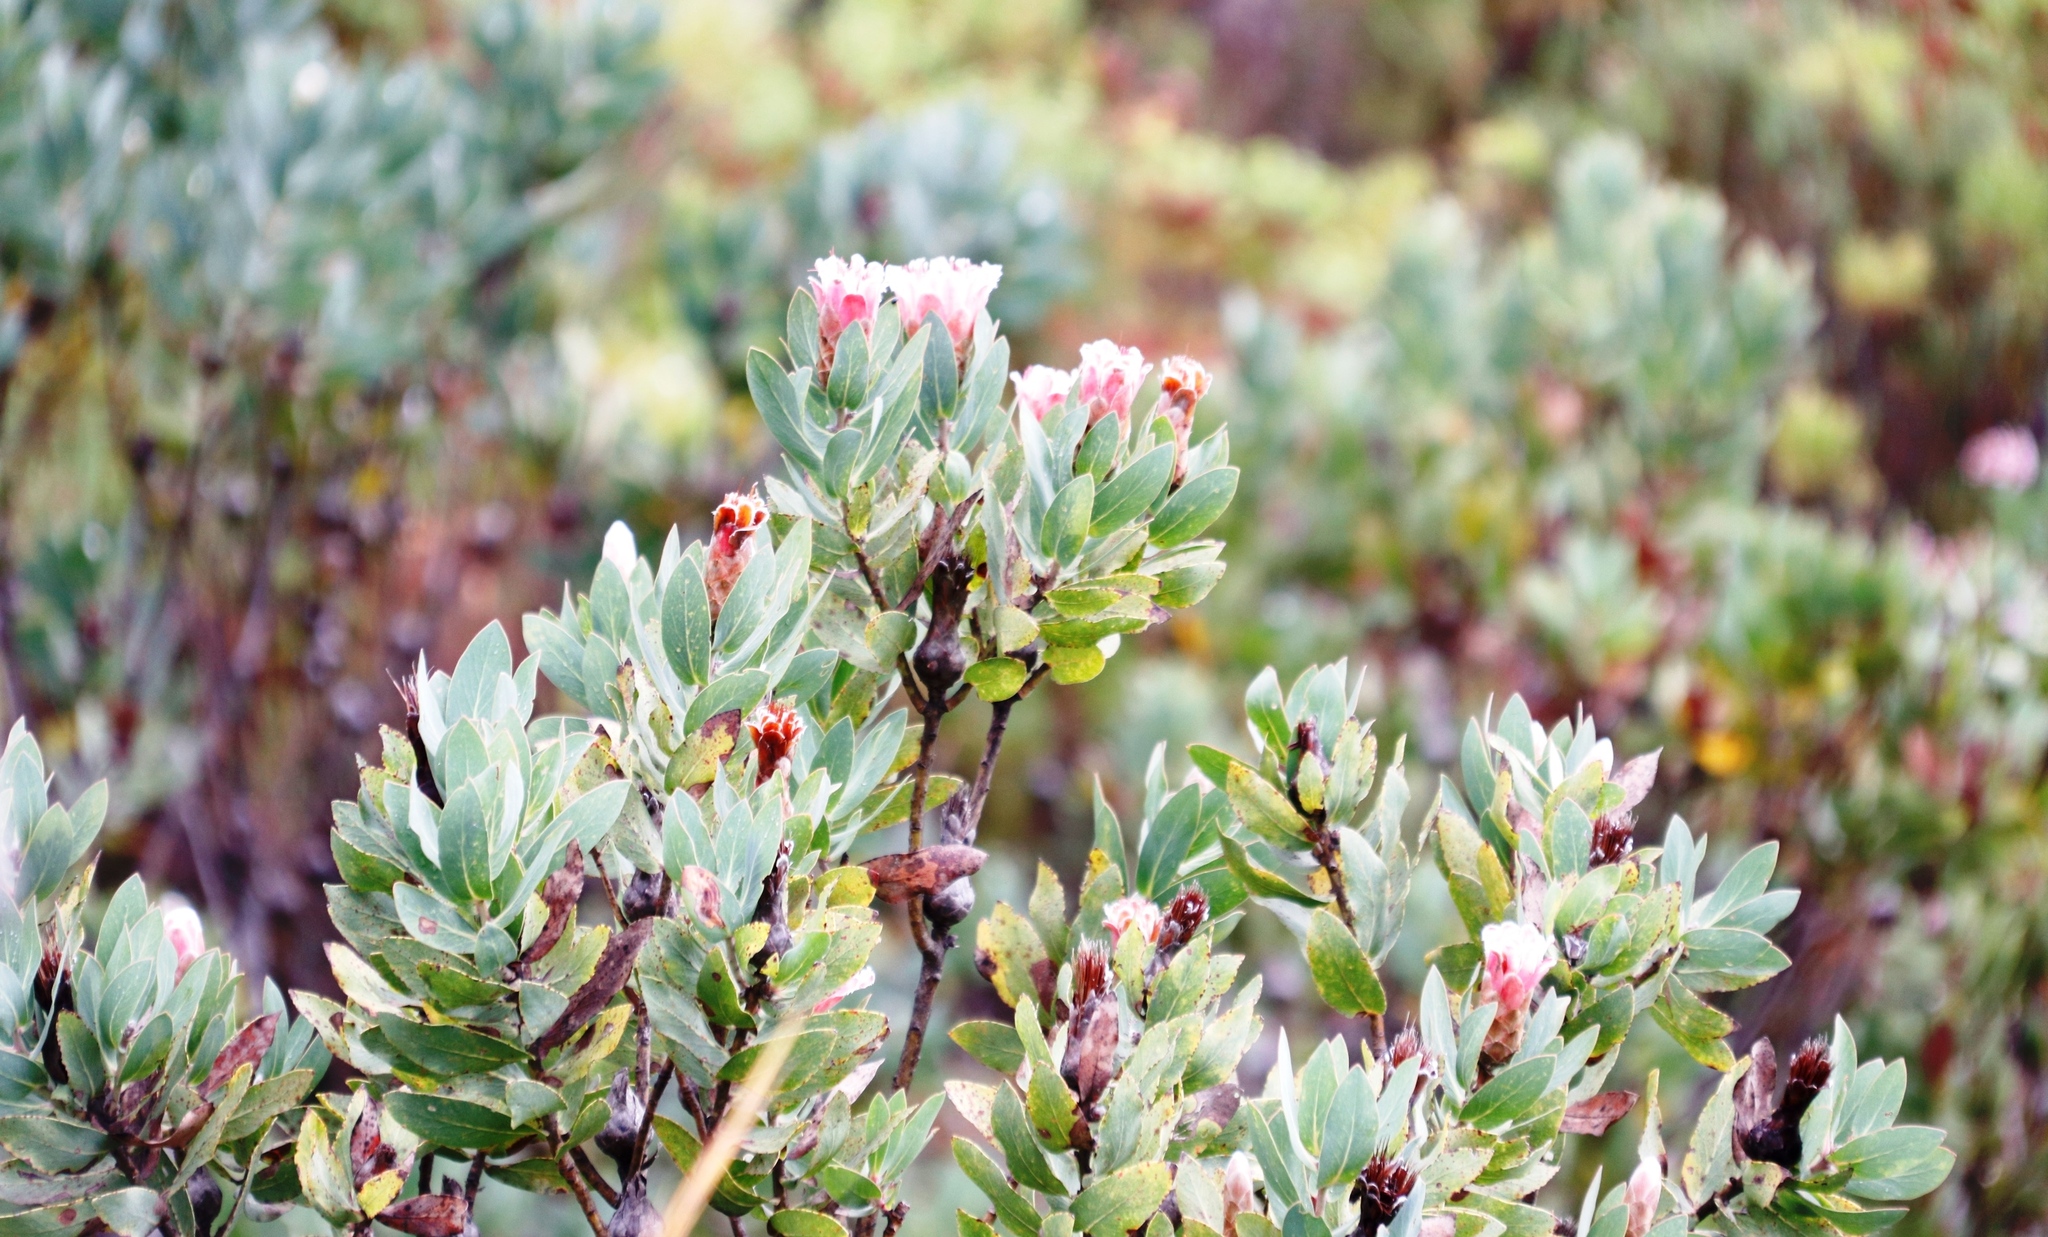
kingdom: Plantae
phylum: Tracheophyta
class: Magnoliopsida
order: Proteales
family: Proteaceae
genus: Protea
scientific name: Protea lacticolor
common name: Hottentot sugarbush
